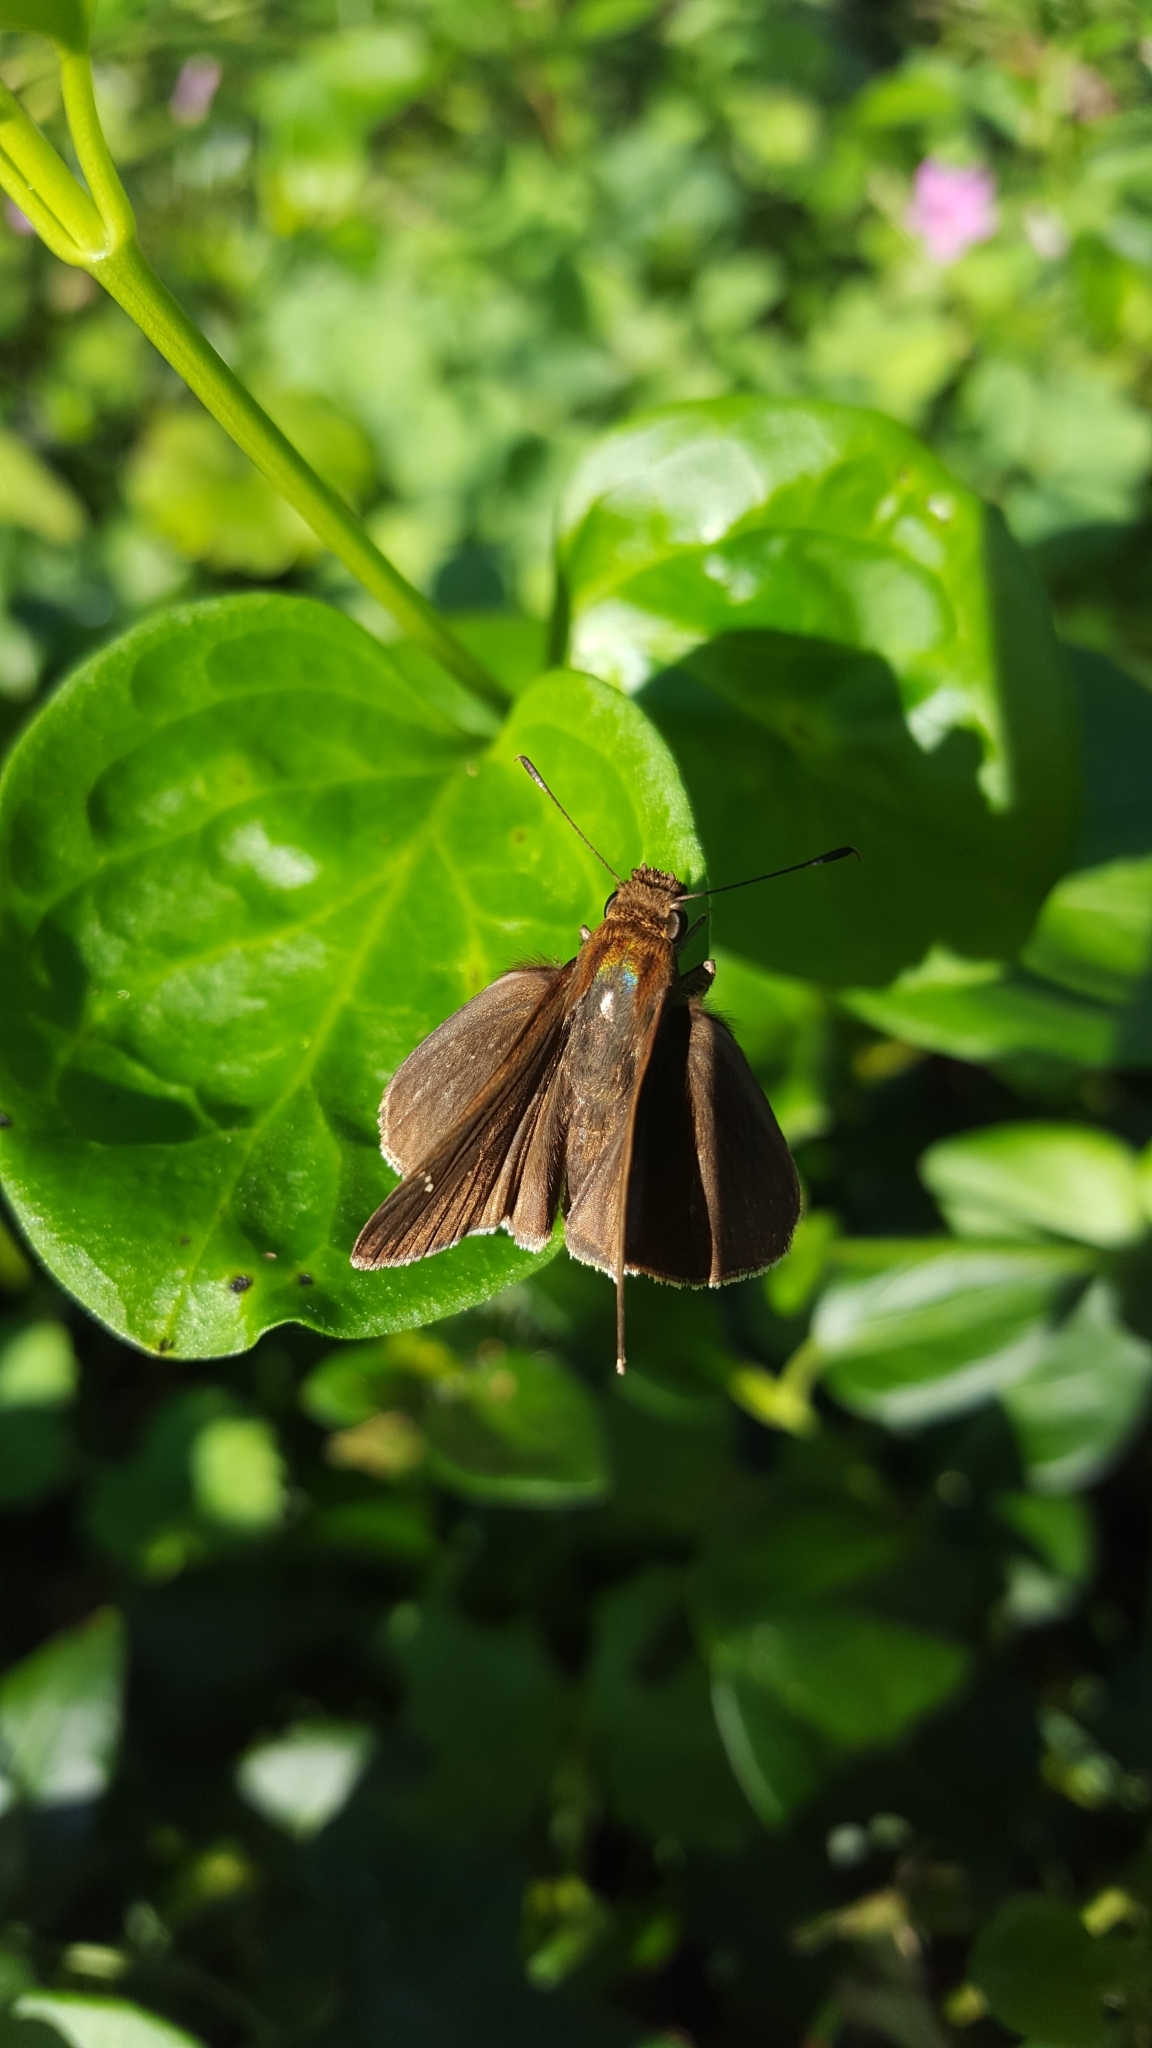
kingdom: Animalia
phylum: Arthropoda
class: Insecta
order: Lepidoptera
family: Hesperiidae
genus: Lerema
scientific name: Lerema accius
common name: Clouded skipper
